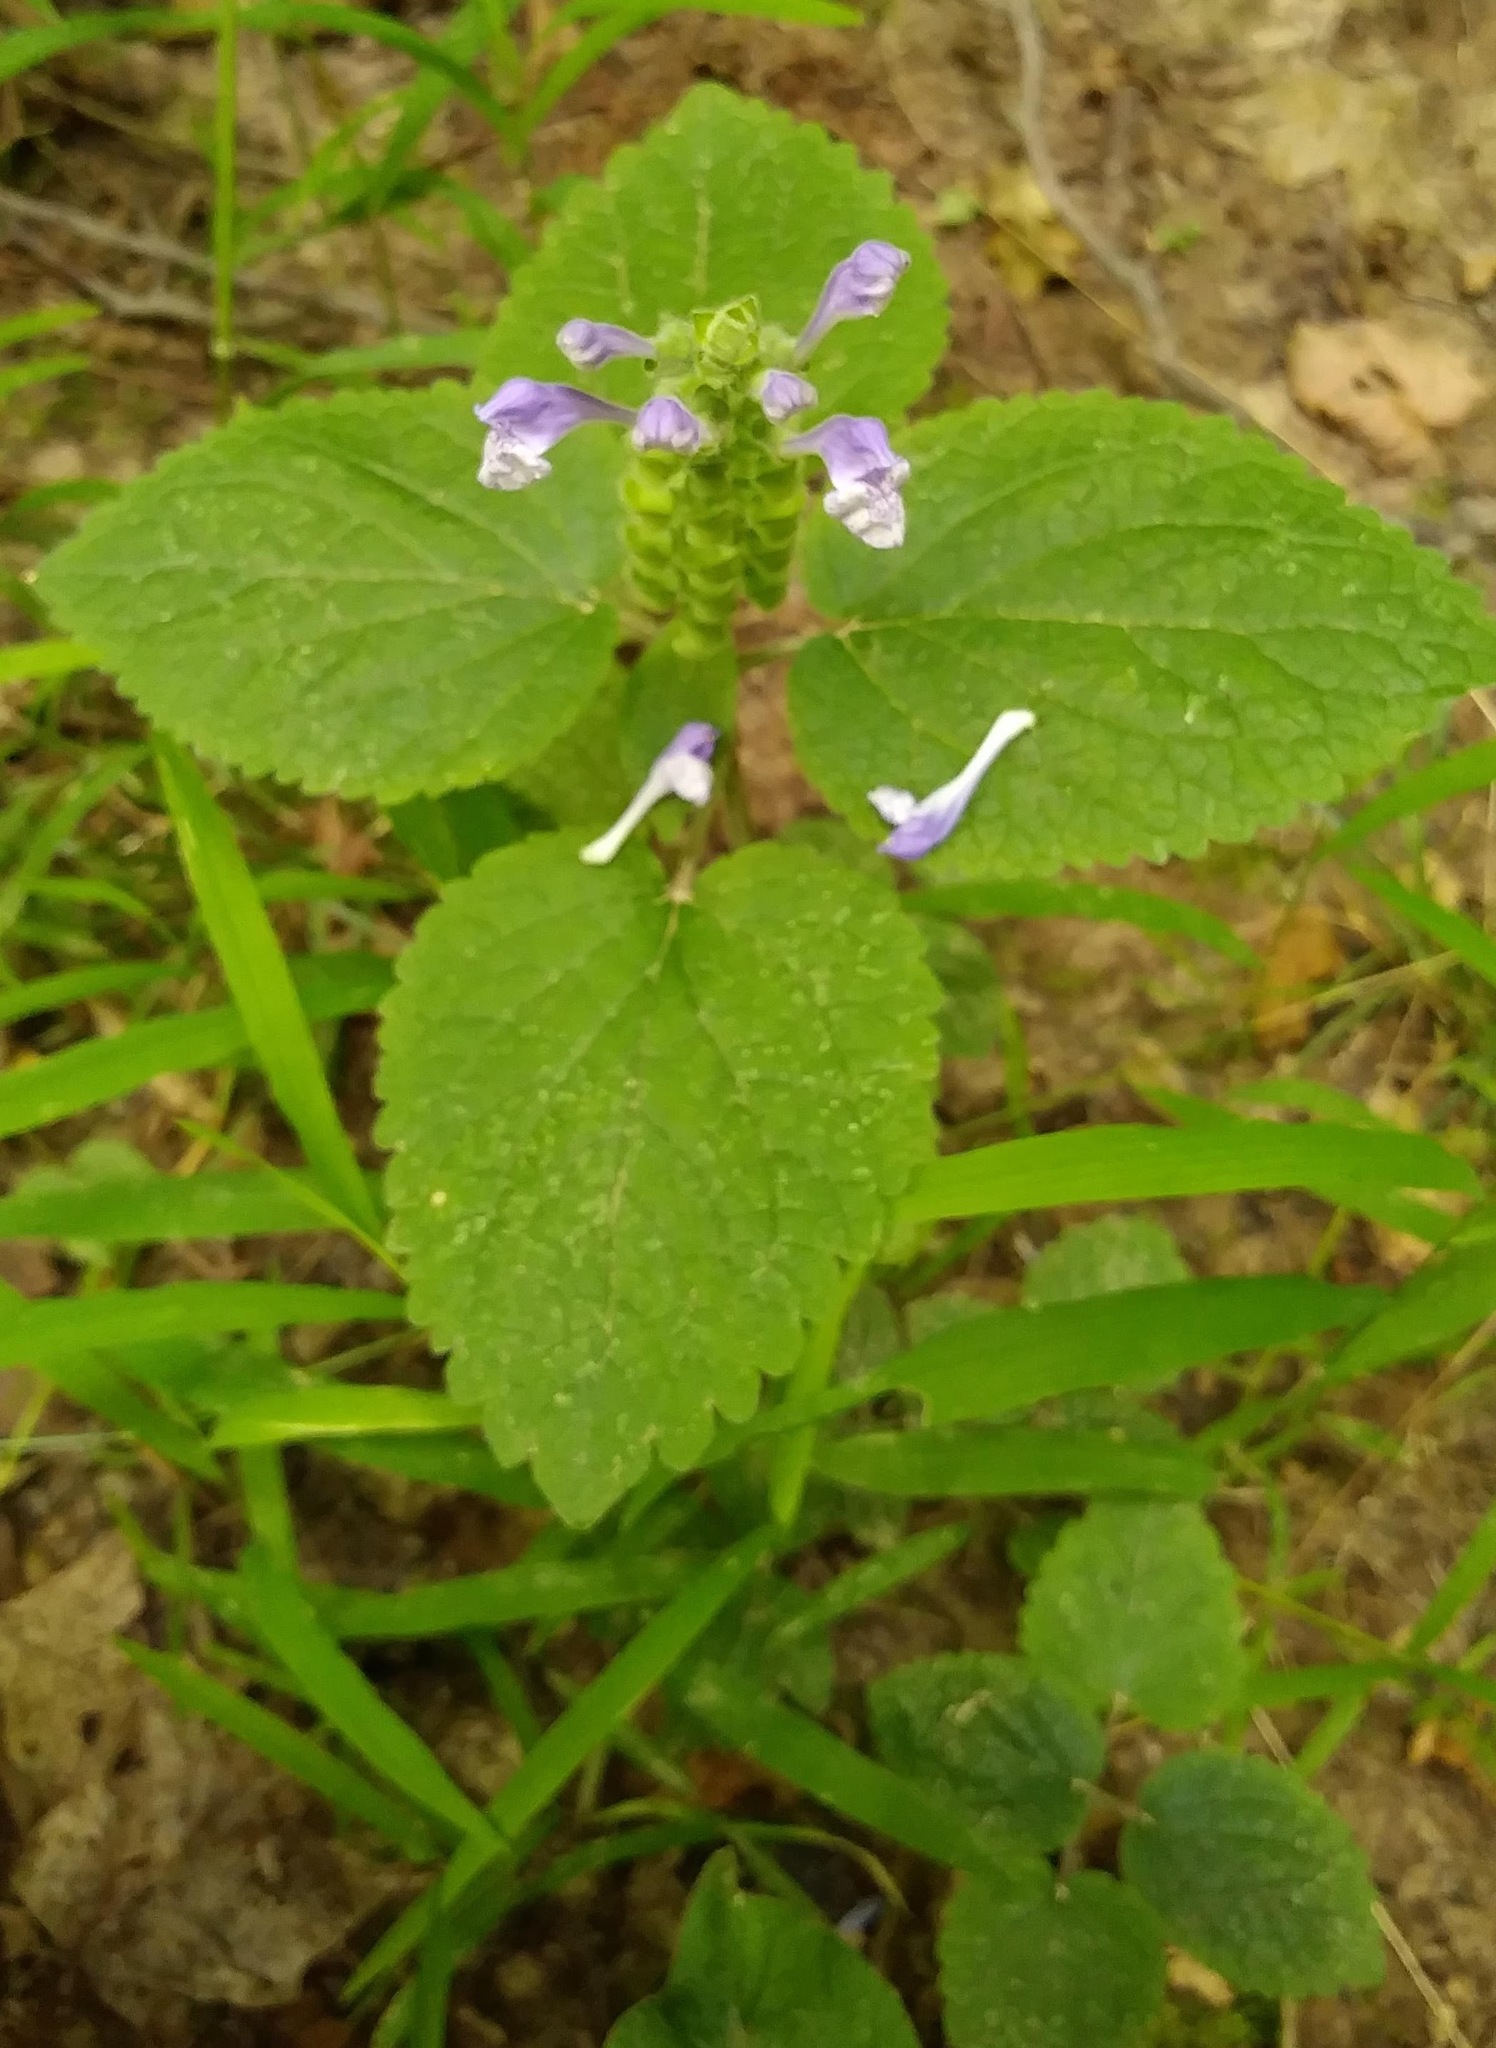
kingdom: Plantae
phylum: Tracheophyta
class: Magnoliopsida
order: Lamiales
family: Lamiaceae
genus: Scutellaria
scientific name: Scutellaria ovata
